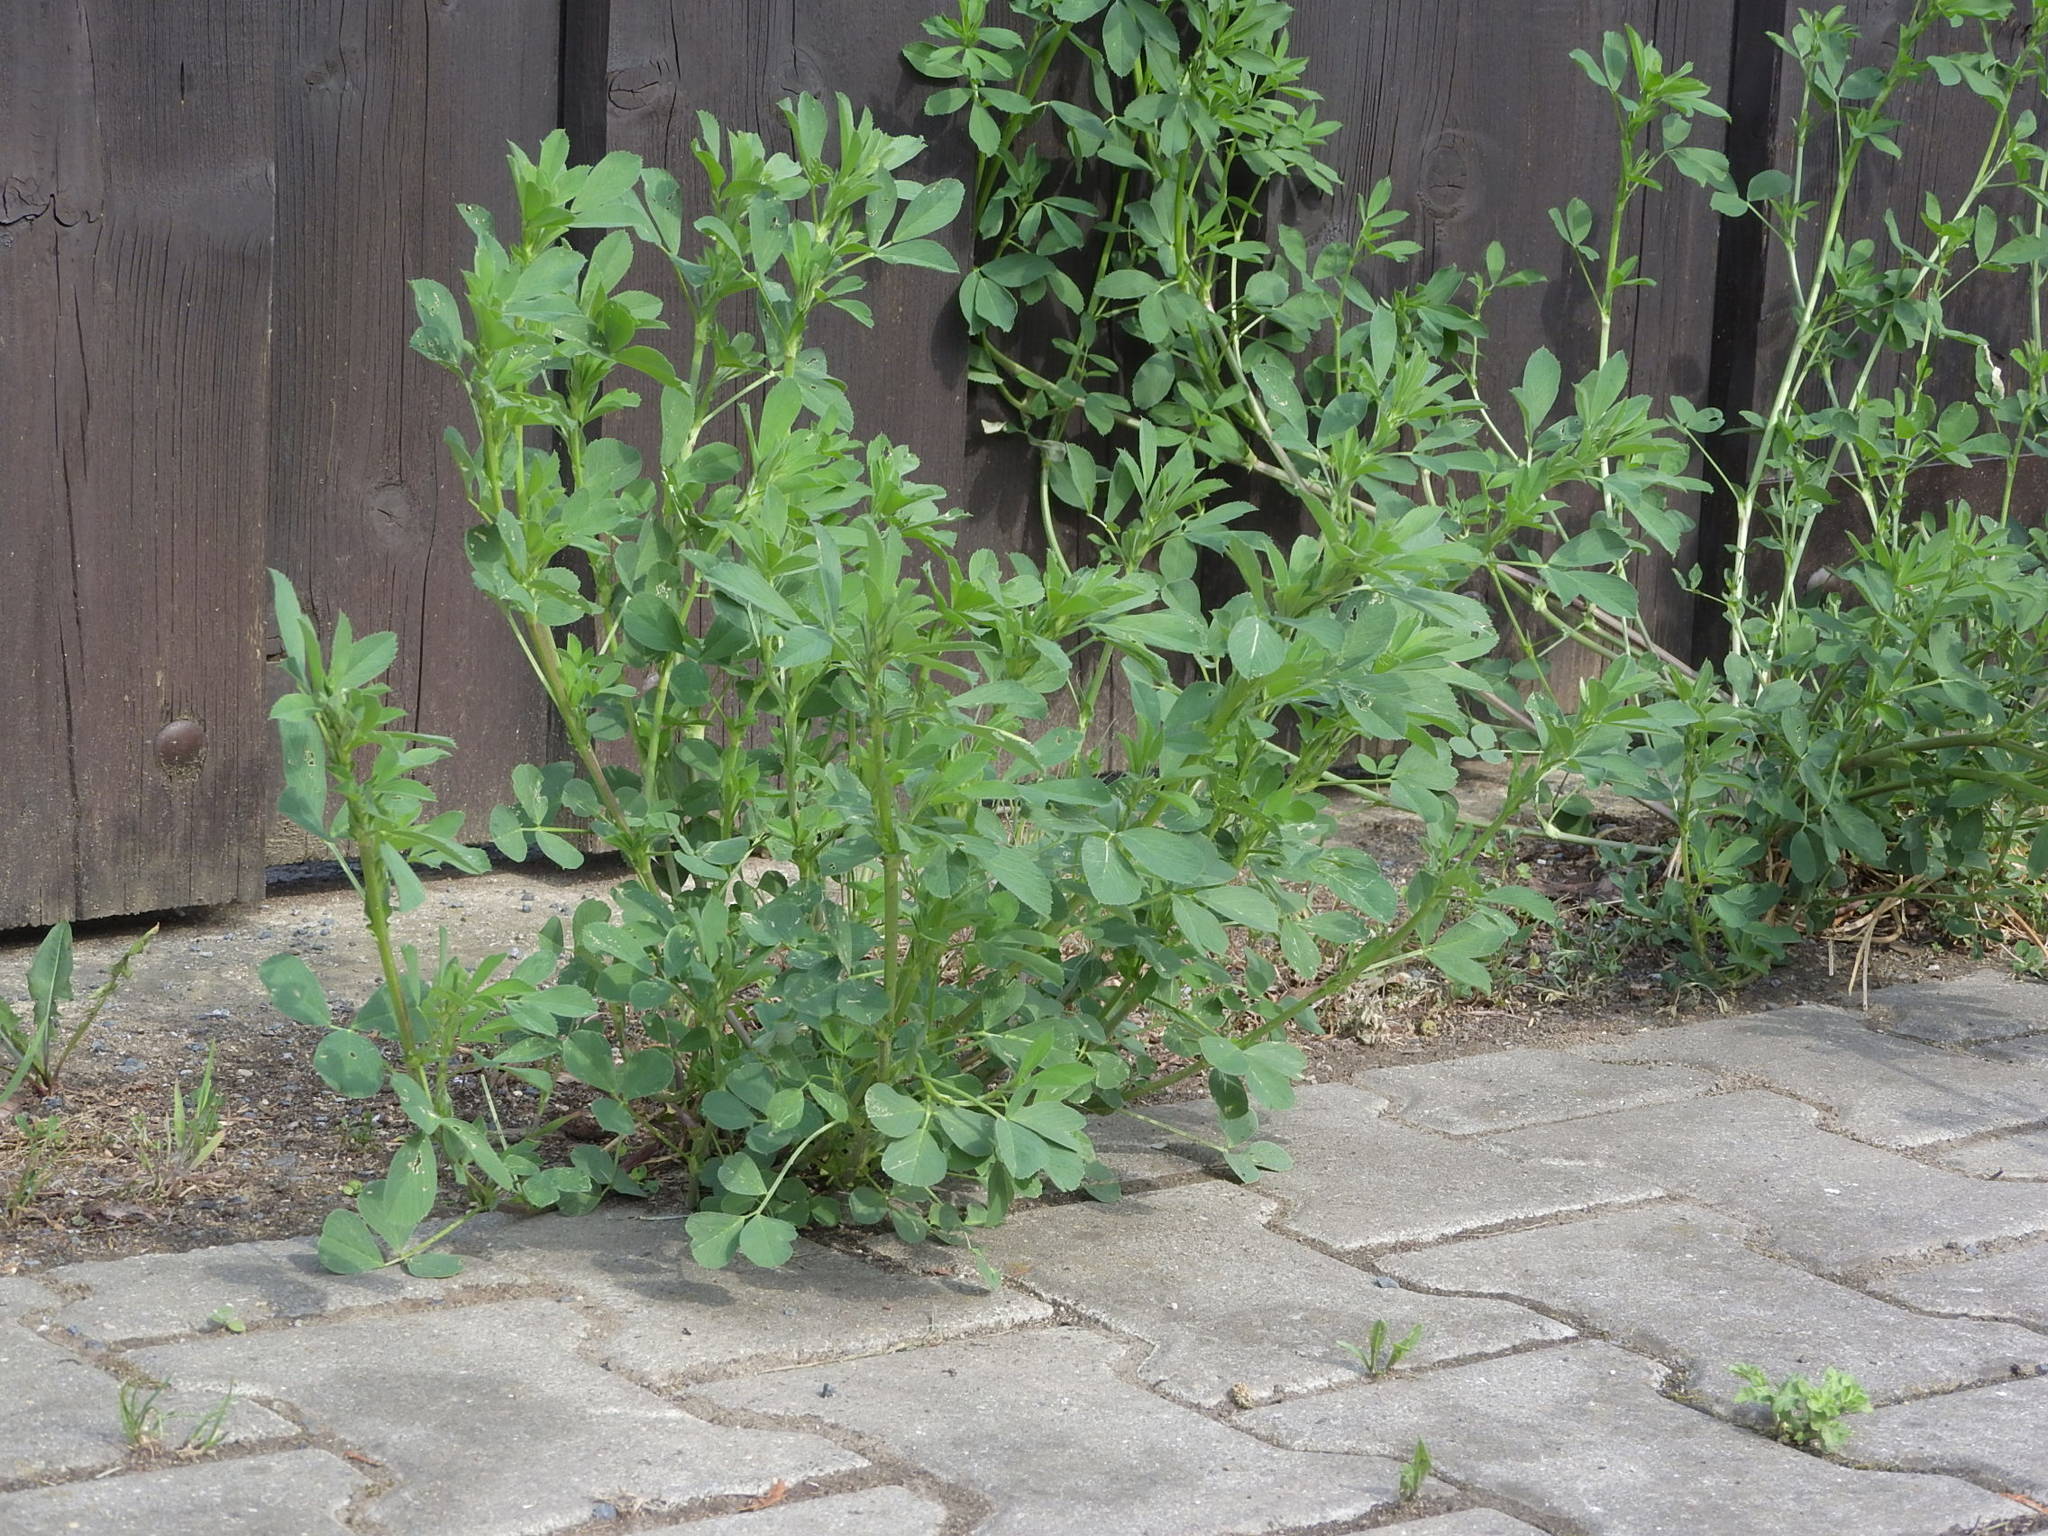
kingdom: Plantae
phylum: Tracheophyta
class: Magnoliopsida
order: Fabales
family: Fabaceae
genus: Medicago
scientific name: Medicago sativa
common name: Alfalfa
